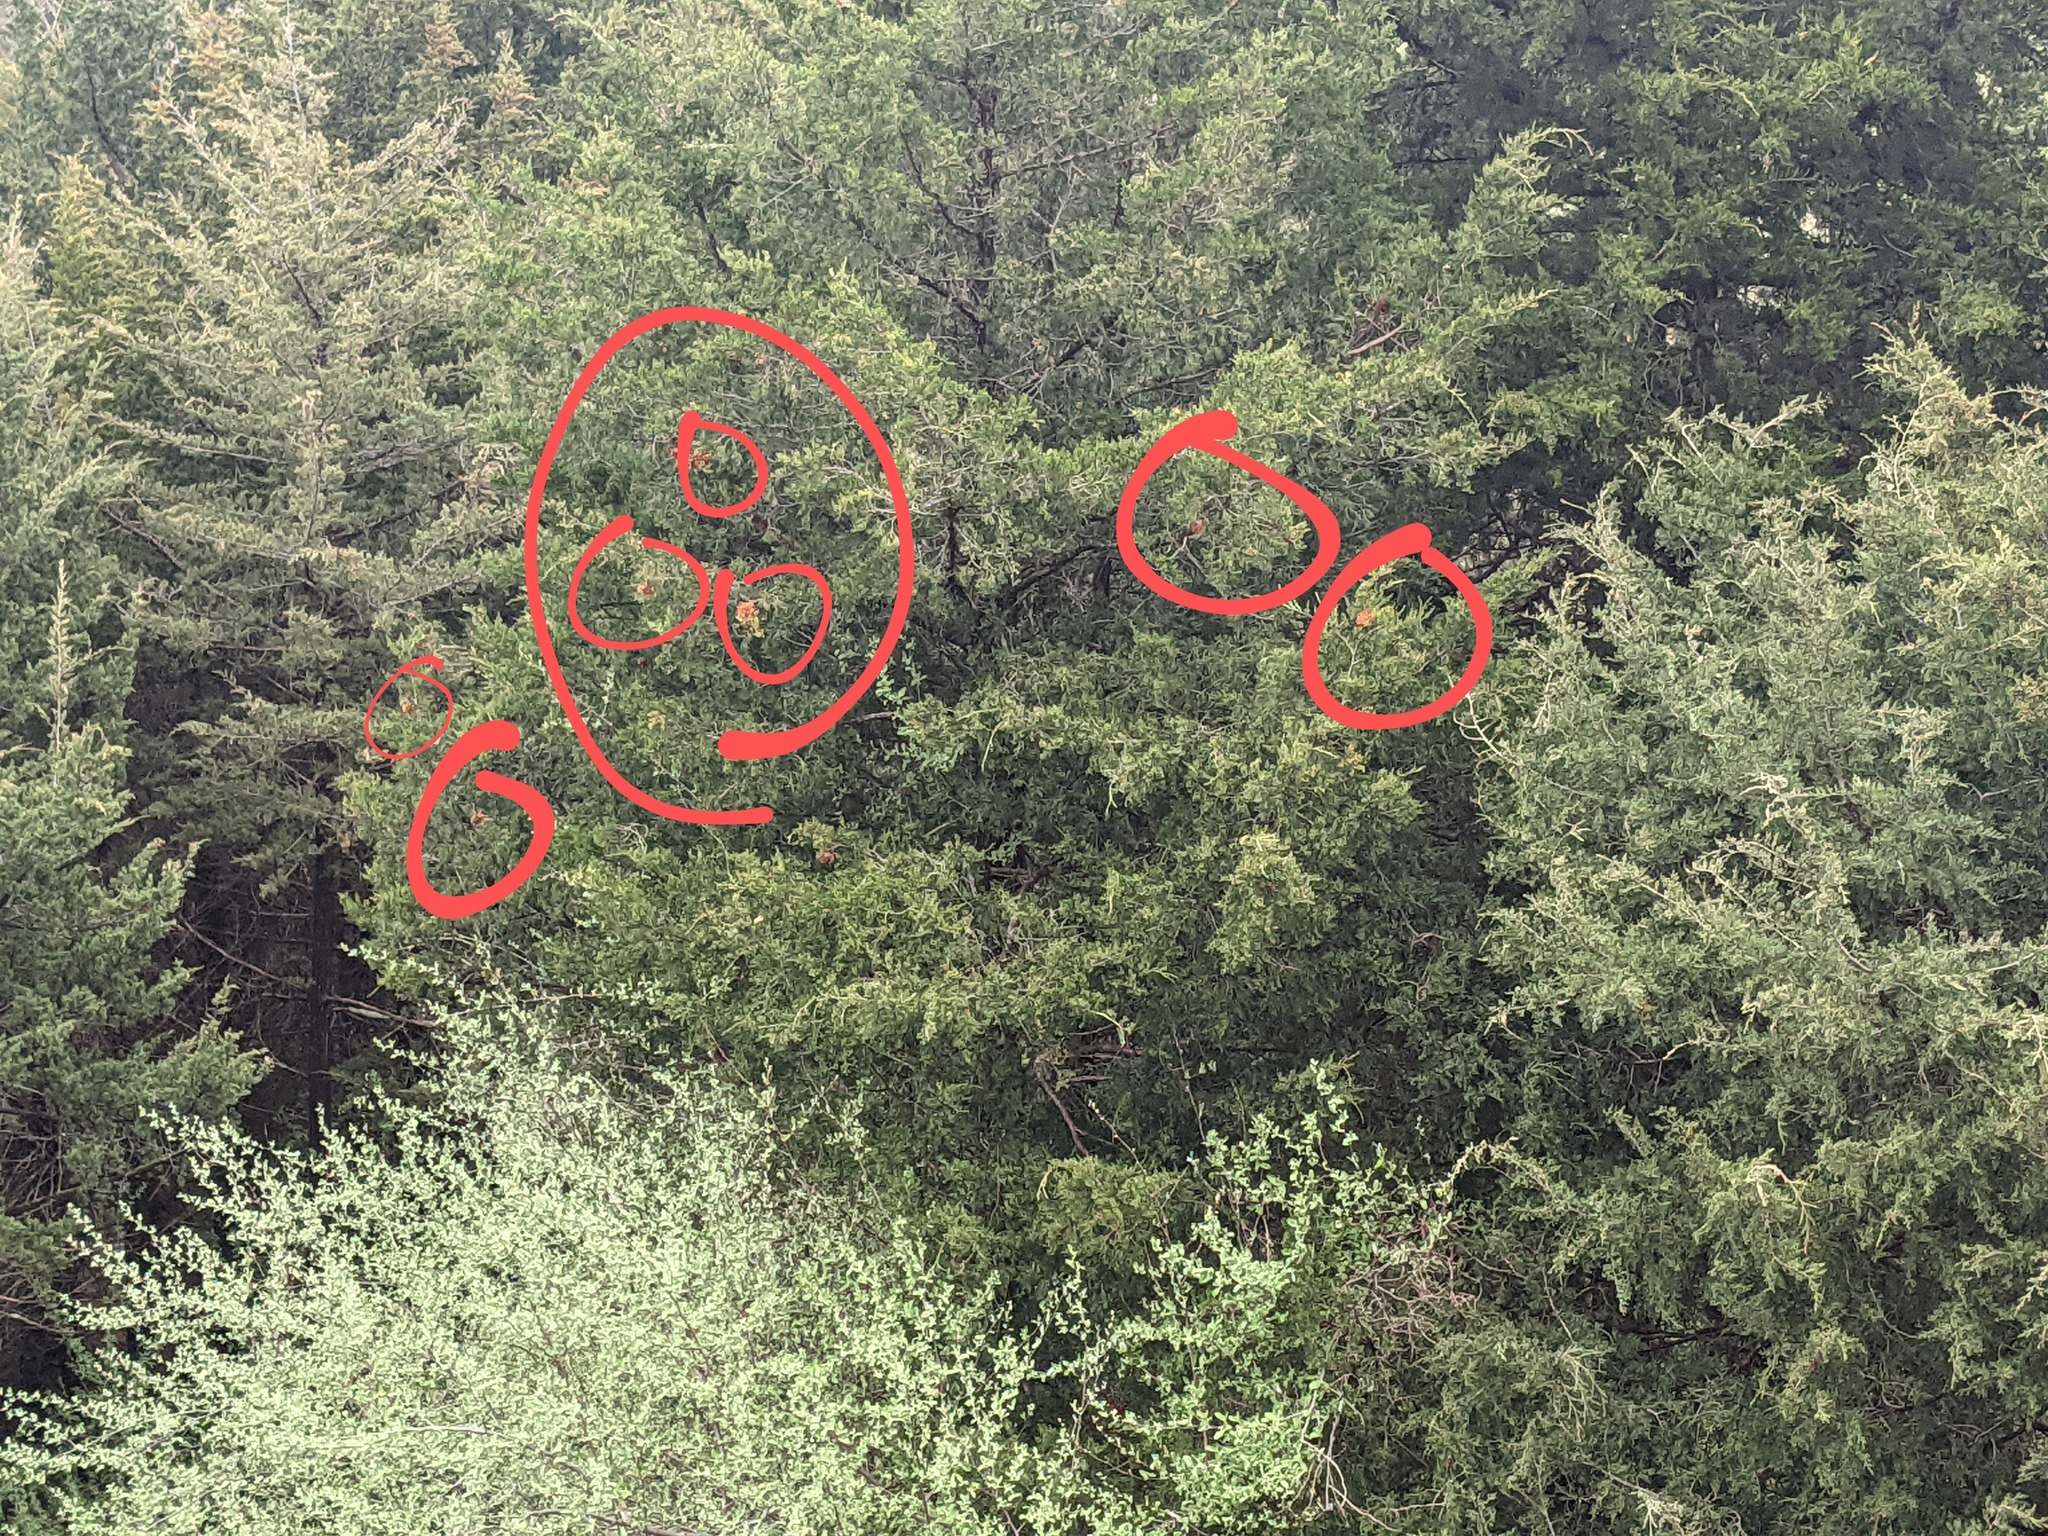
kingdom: Fungi
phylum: Basidiomycota
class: Pucciniomycetes
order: Pucciniales
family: Gymnosporangiaceae
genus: Gymnosporangium
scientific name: Gymnosporangium juniperi-virginianae
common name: Juniper-apple rust
